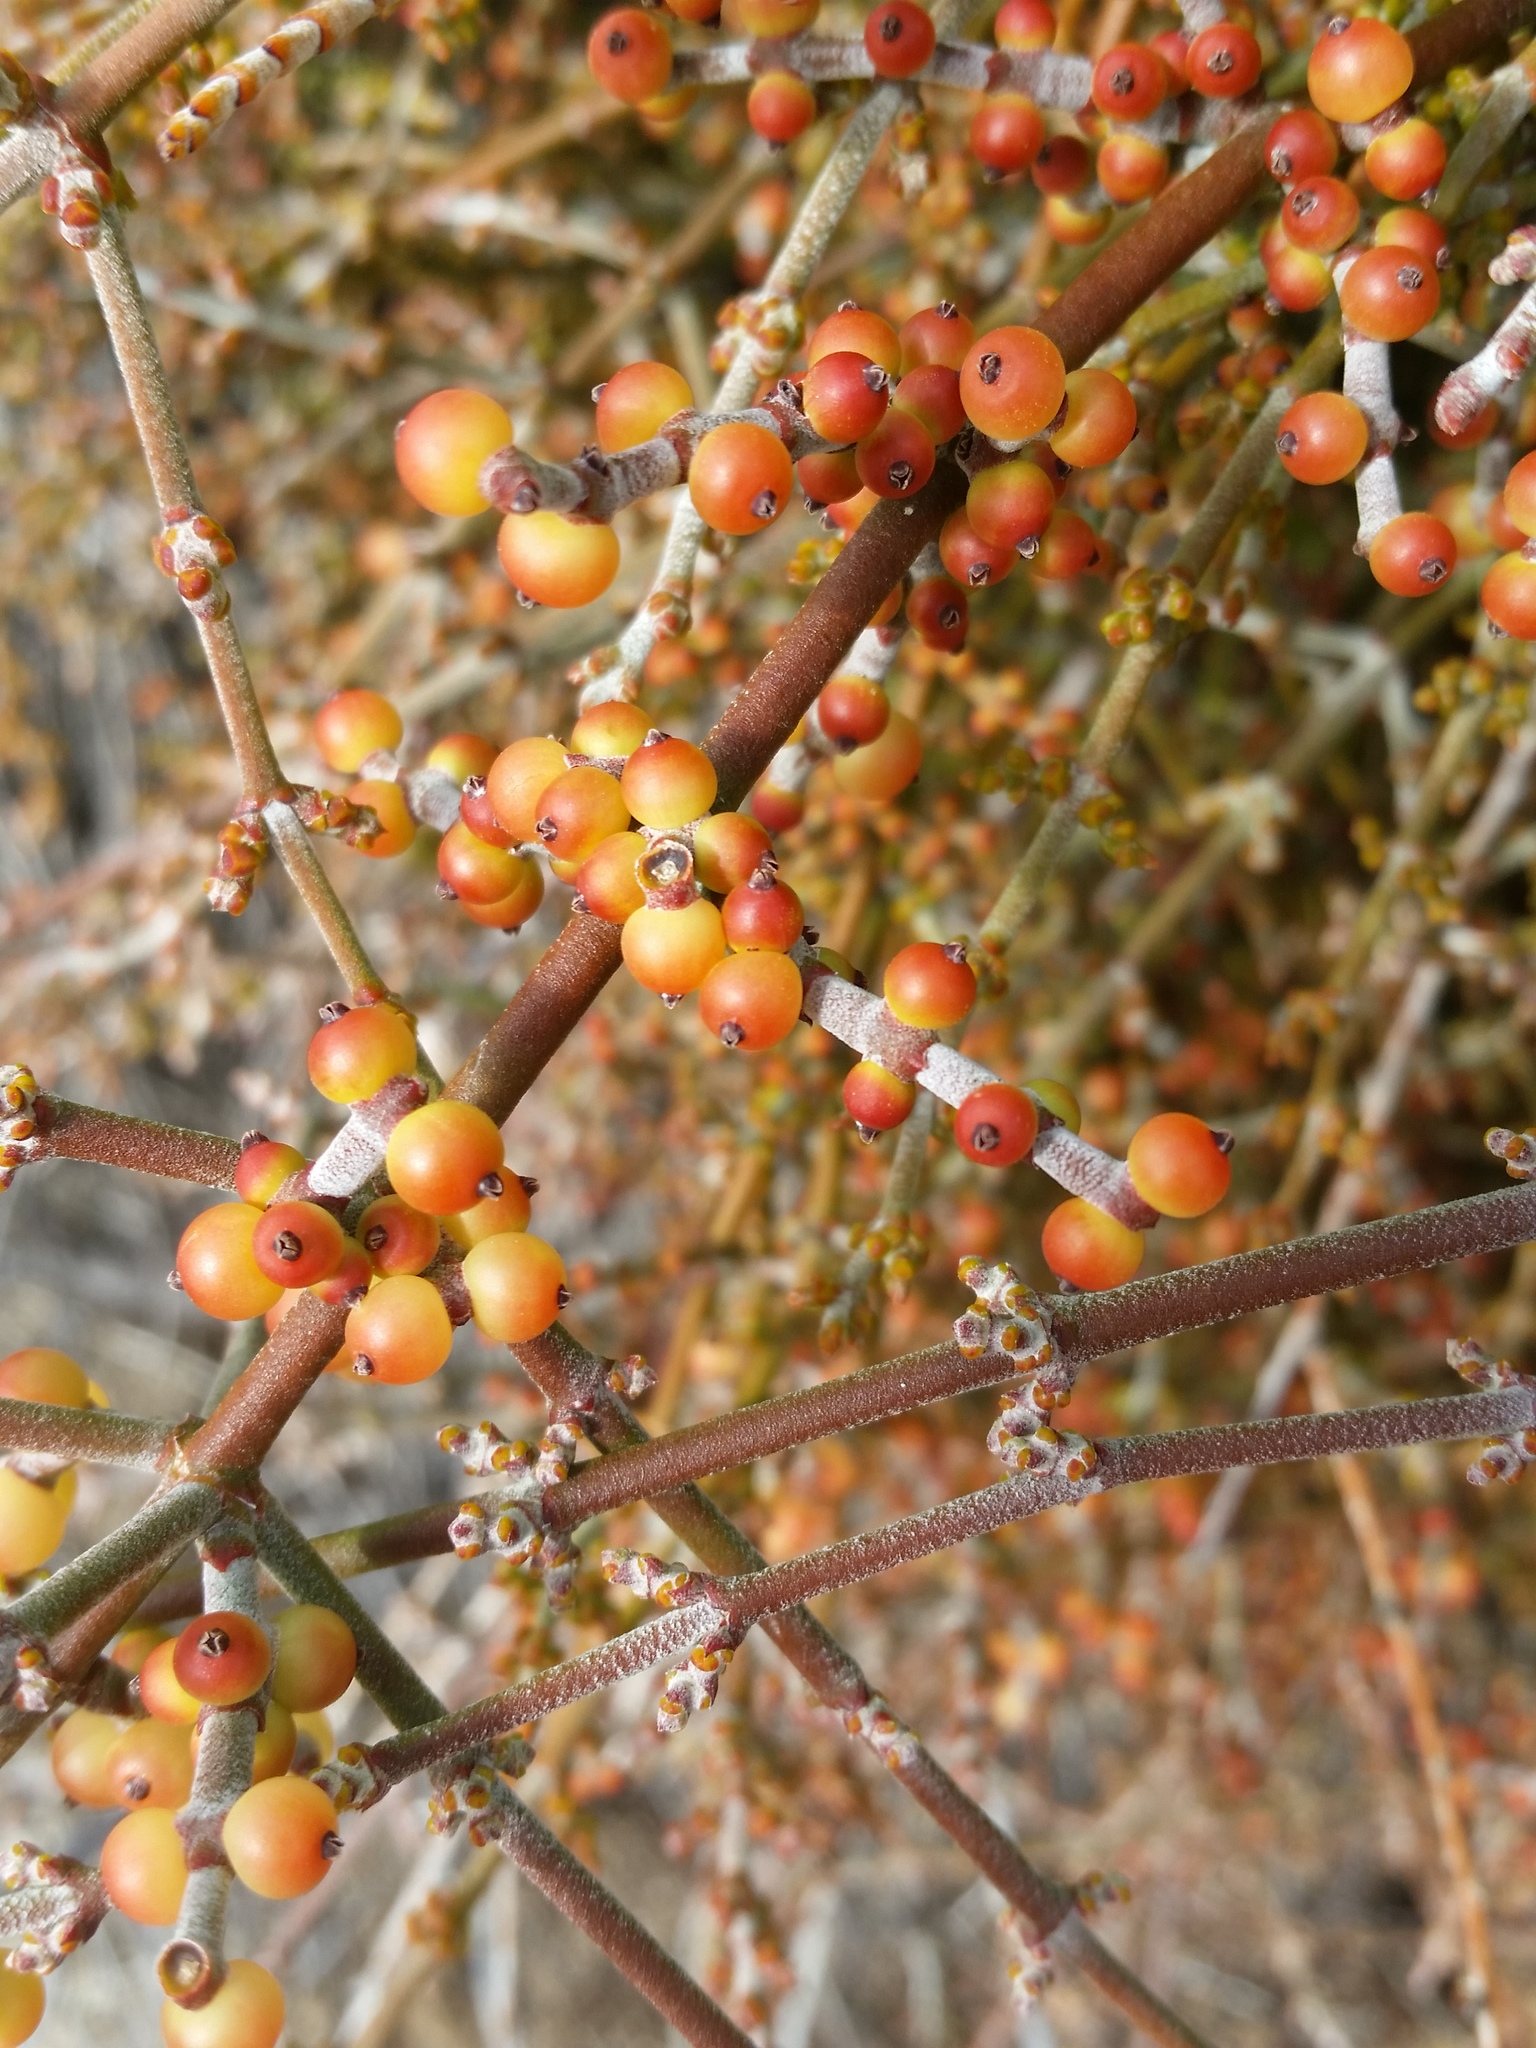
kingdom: Plantae
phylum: Tracheophyta
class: Magnoliopsida
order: Santalales
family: Viscaceae
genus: Phoradendron
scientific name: Phoradendron californicum
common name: Acacia mistletoe
